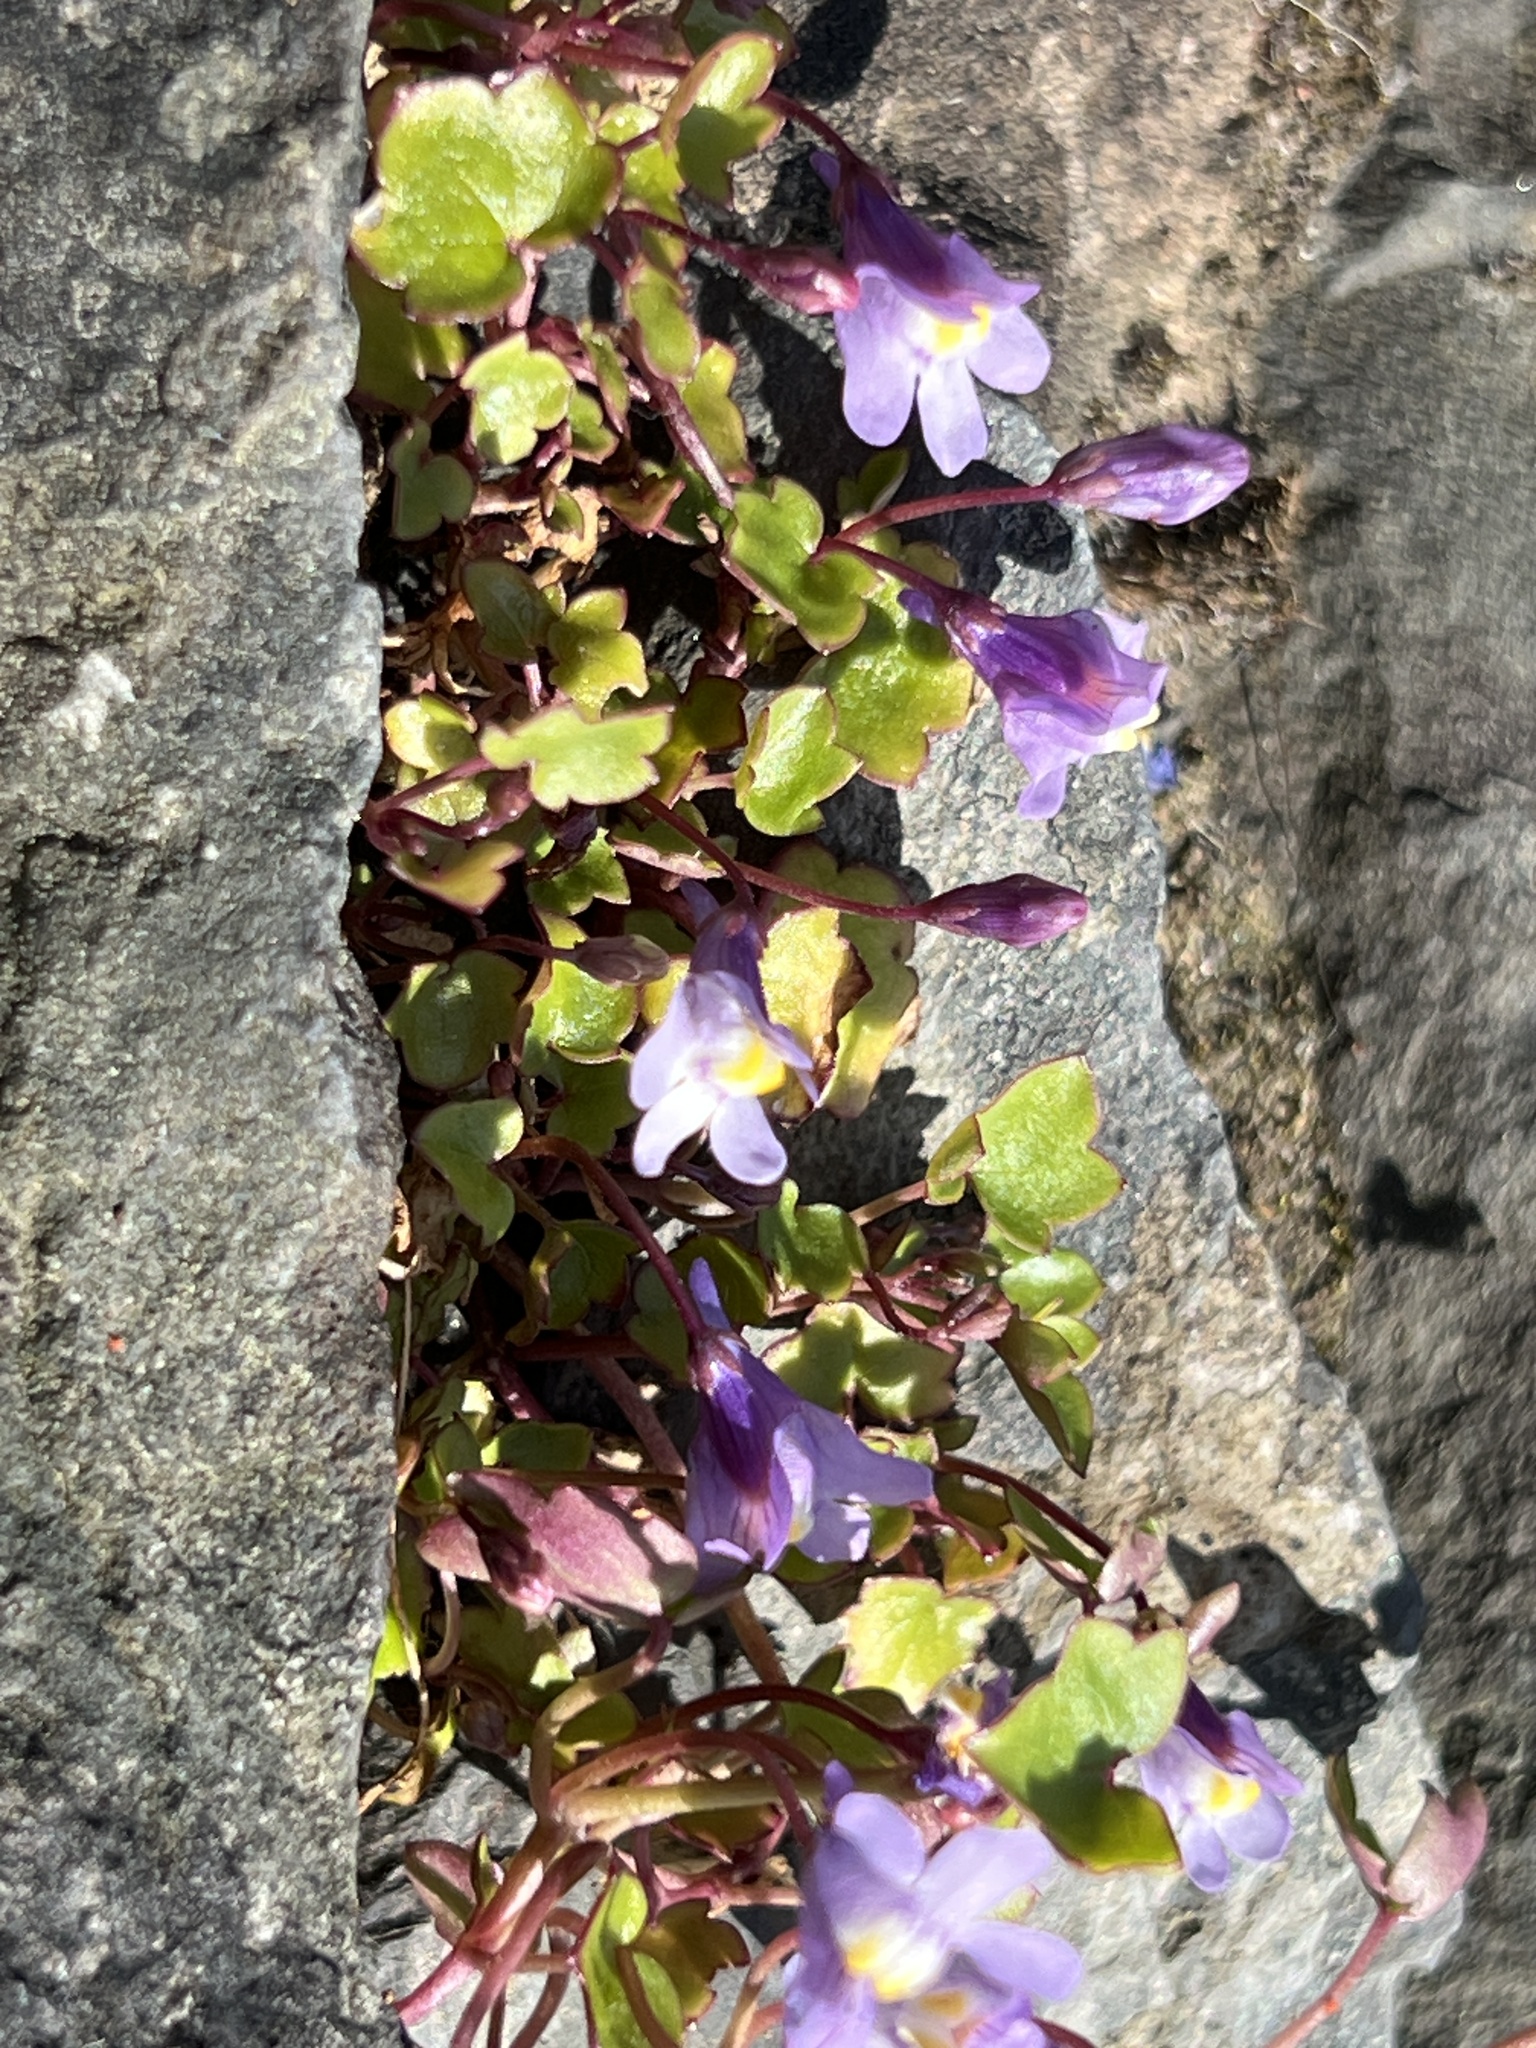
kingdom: Plantae
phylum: Tracheophyta
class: Magnoliopsida
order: Lamiales
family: Plantaginaceae
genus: Cymbalaria
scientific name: Cymbalaria muralis
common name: Ivy-leaved toadflax
